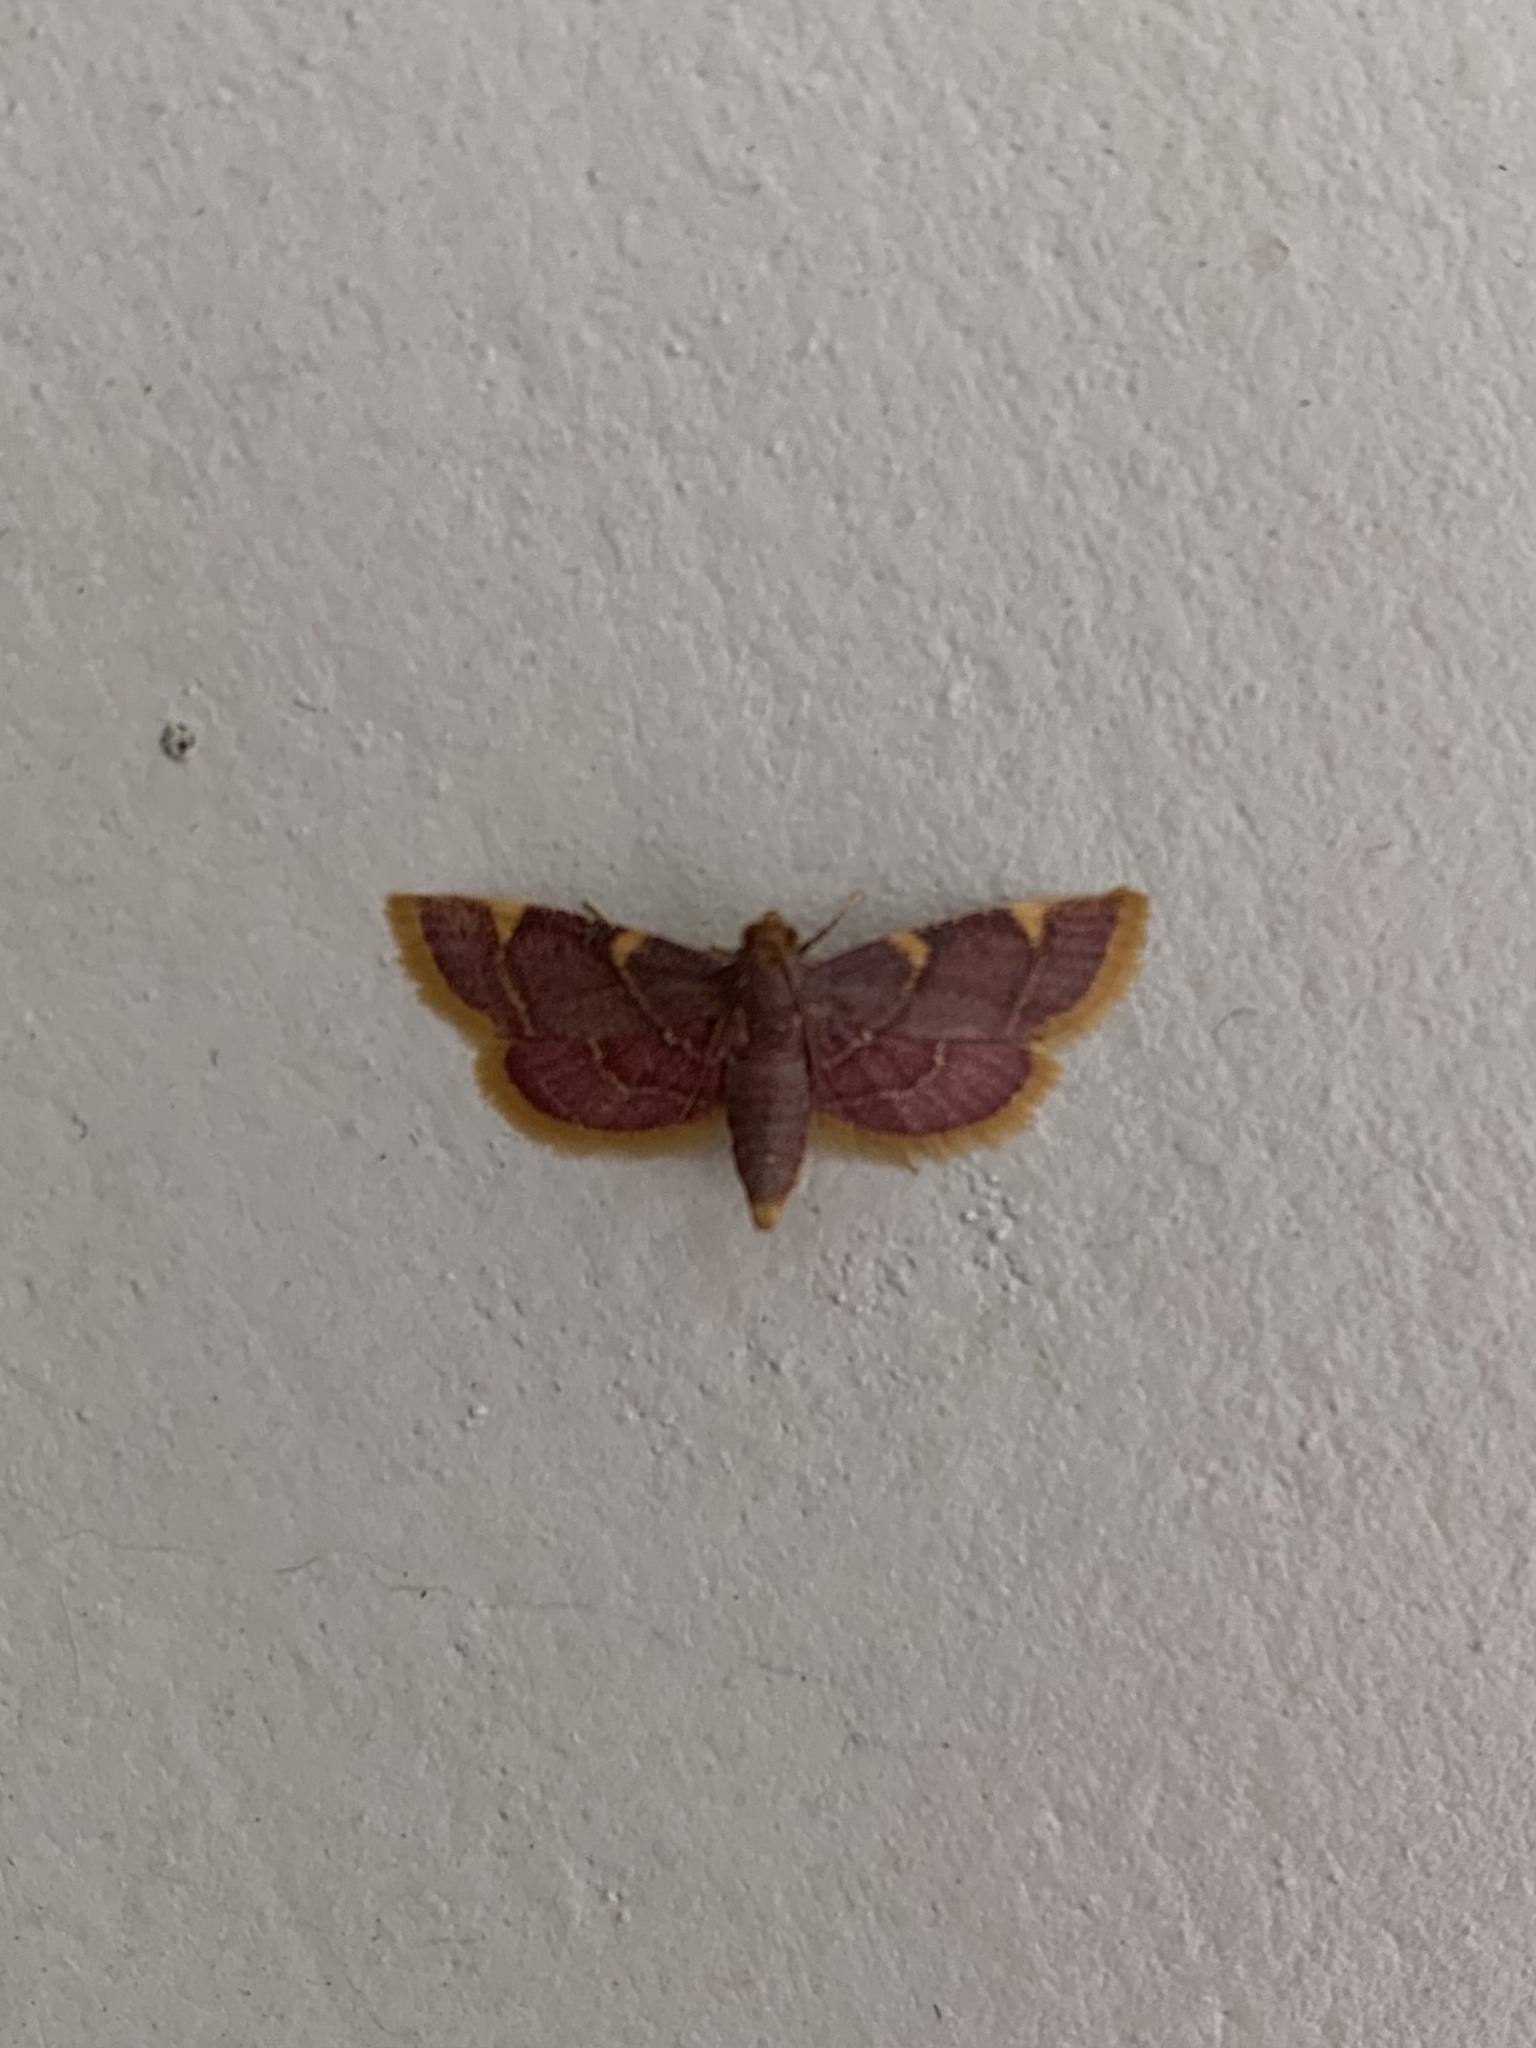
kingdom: Animalia
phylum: Arthropoda
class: Insecta
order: Lepidoptera
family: Pyralidae
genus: Hypsopygia
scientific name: Hypsopygia costalis
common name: Gold triangle
